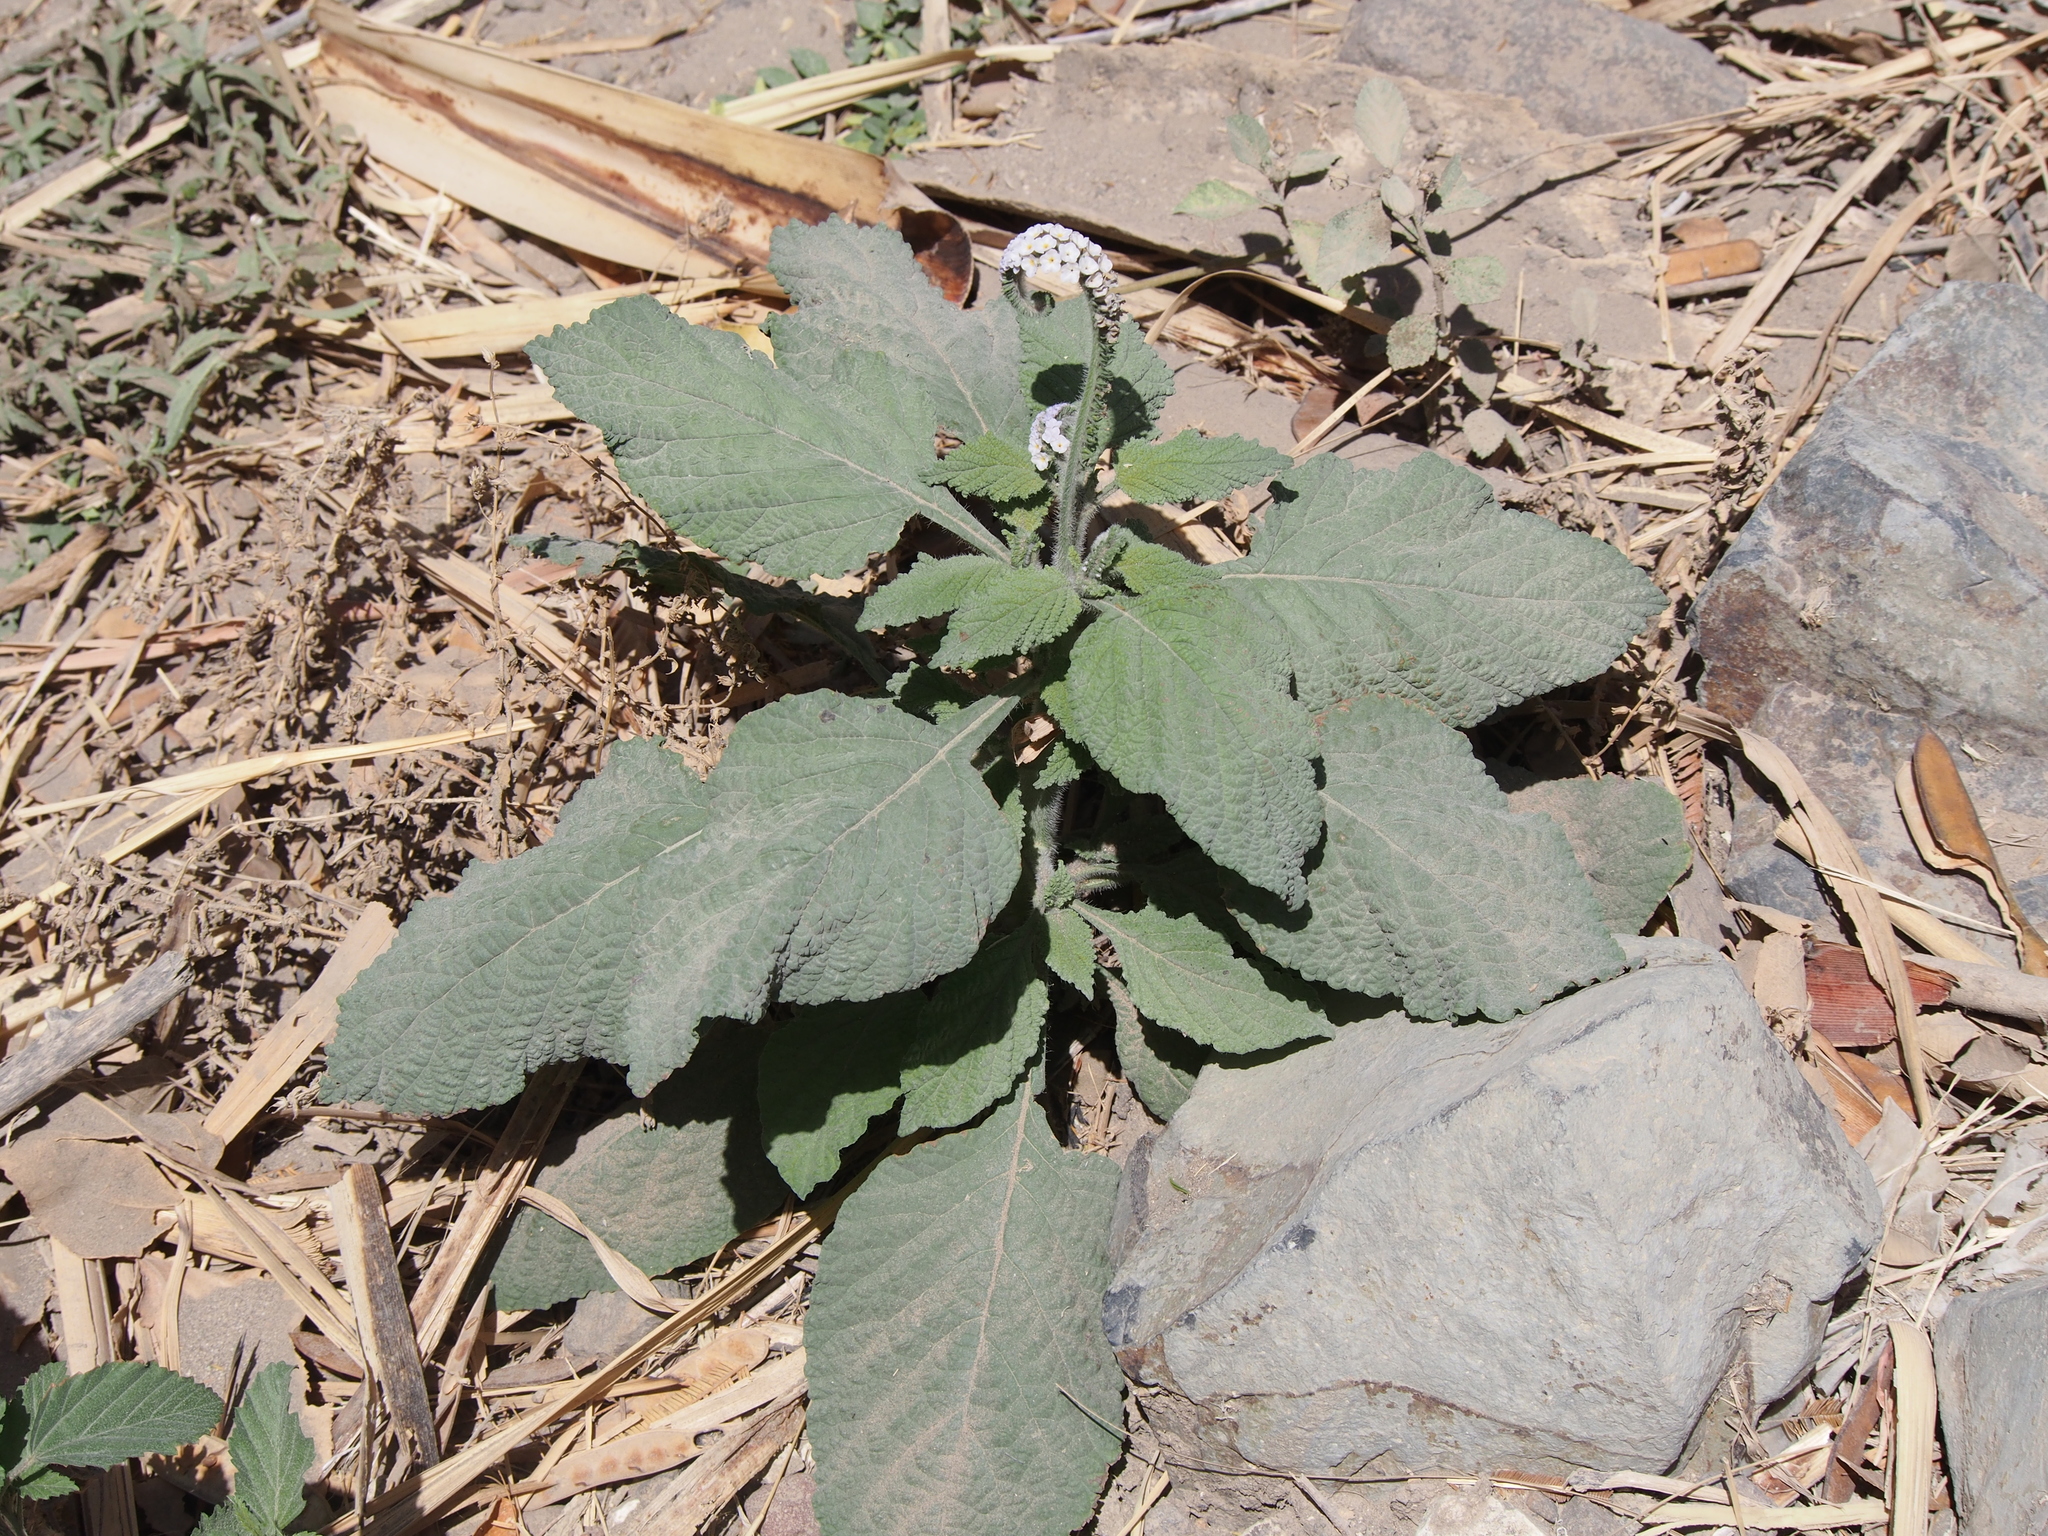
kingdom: Plantae
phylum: Tracheophyta
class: Magnoliopsida
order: Boraginales
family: Heliotropiaceae
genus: Heliotropium
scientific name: Heliotropium indicum
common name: Indian heliotrope
